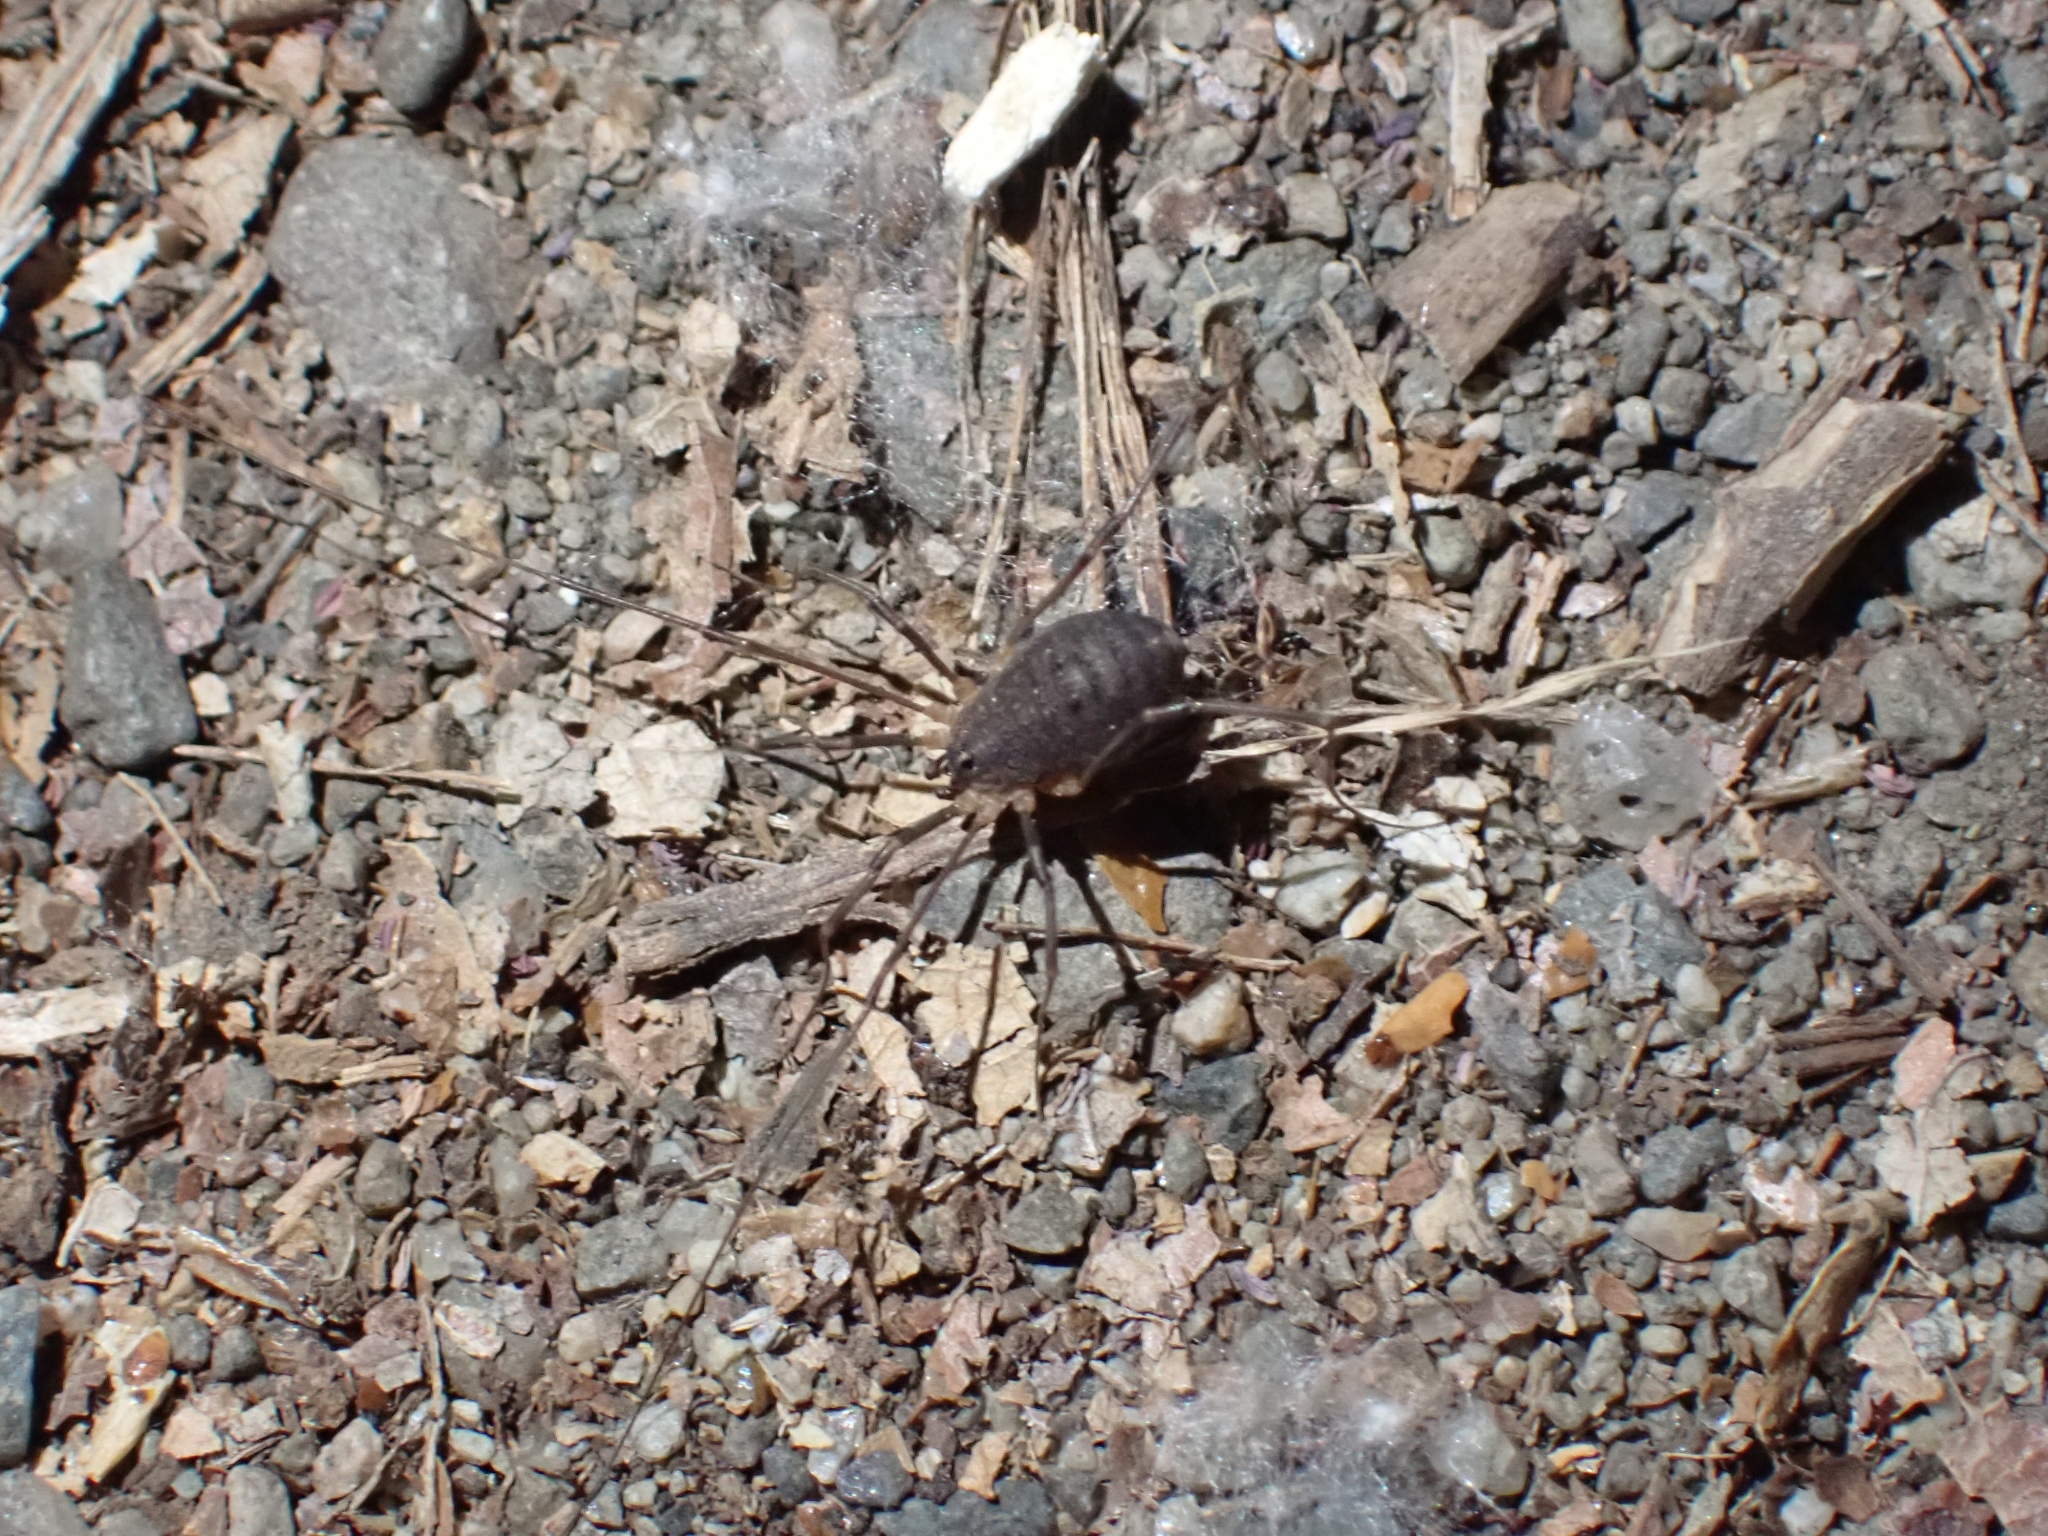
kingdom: Animalia
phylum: Arthropoda
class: Arachnida
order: Opiliones
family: Sclerosomatidae
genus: Togwoteeus
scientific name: Togwoteeus biceps
